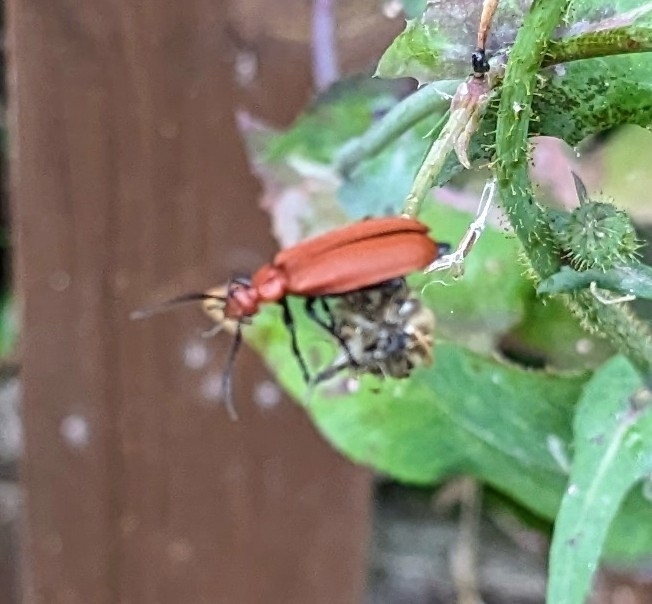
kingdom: Animalia
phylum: Arthropoda
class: Insecta
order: Coleoptera
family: Pyrochroidae
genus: Pyrochroa
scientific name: Pyrochroa serraticornis
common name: Red-headed cardinal beetle
